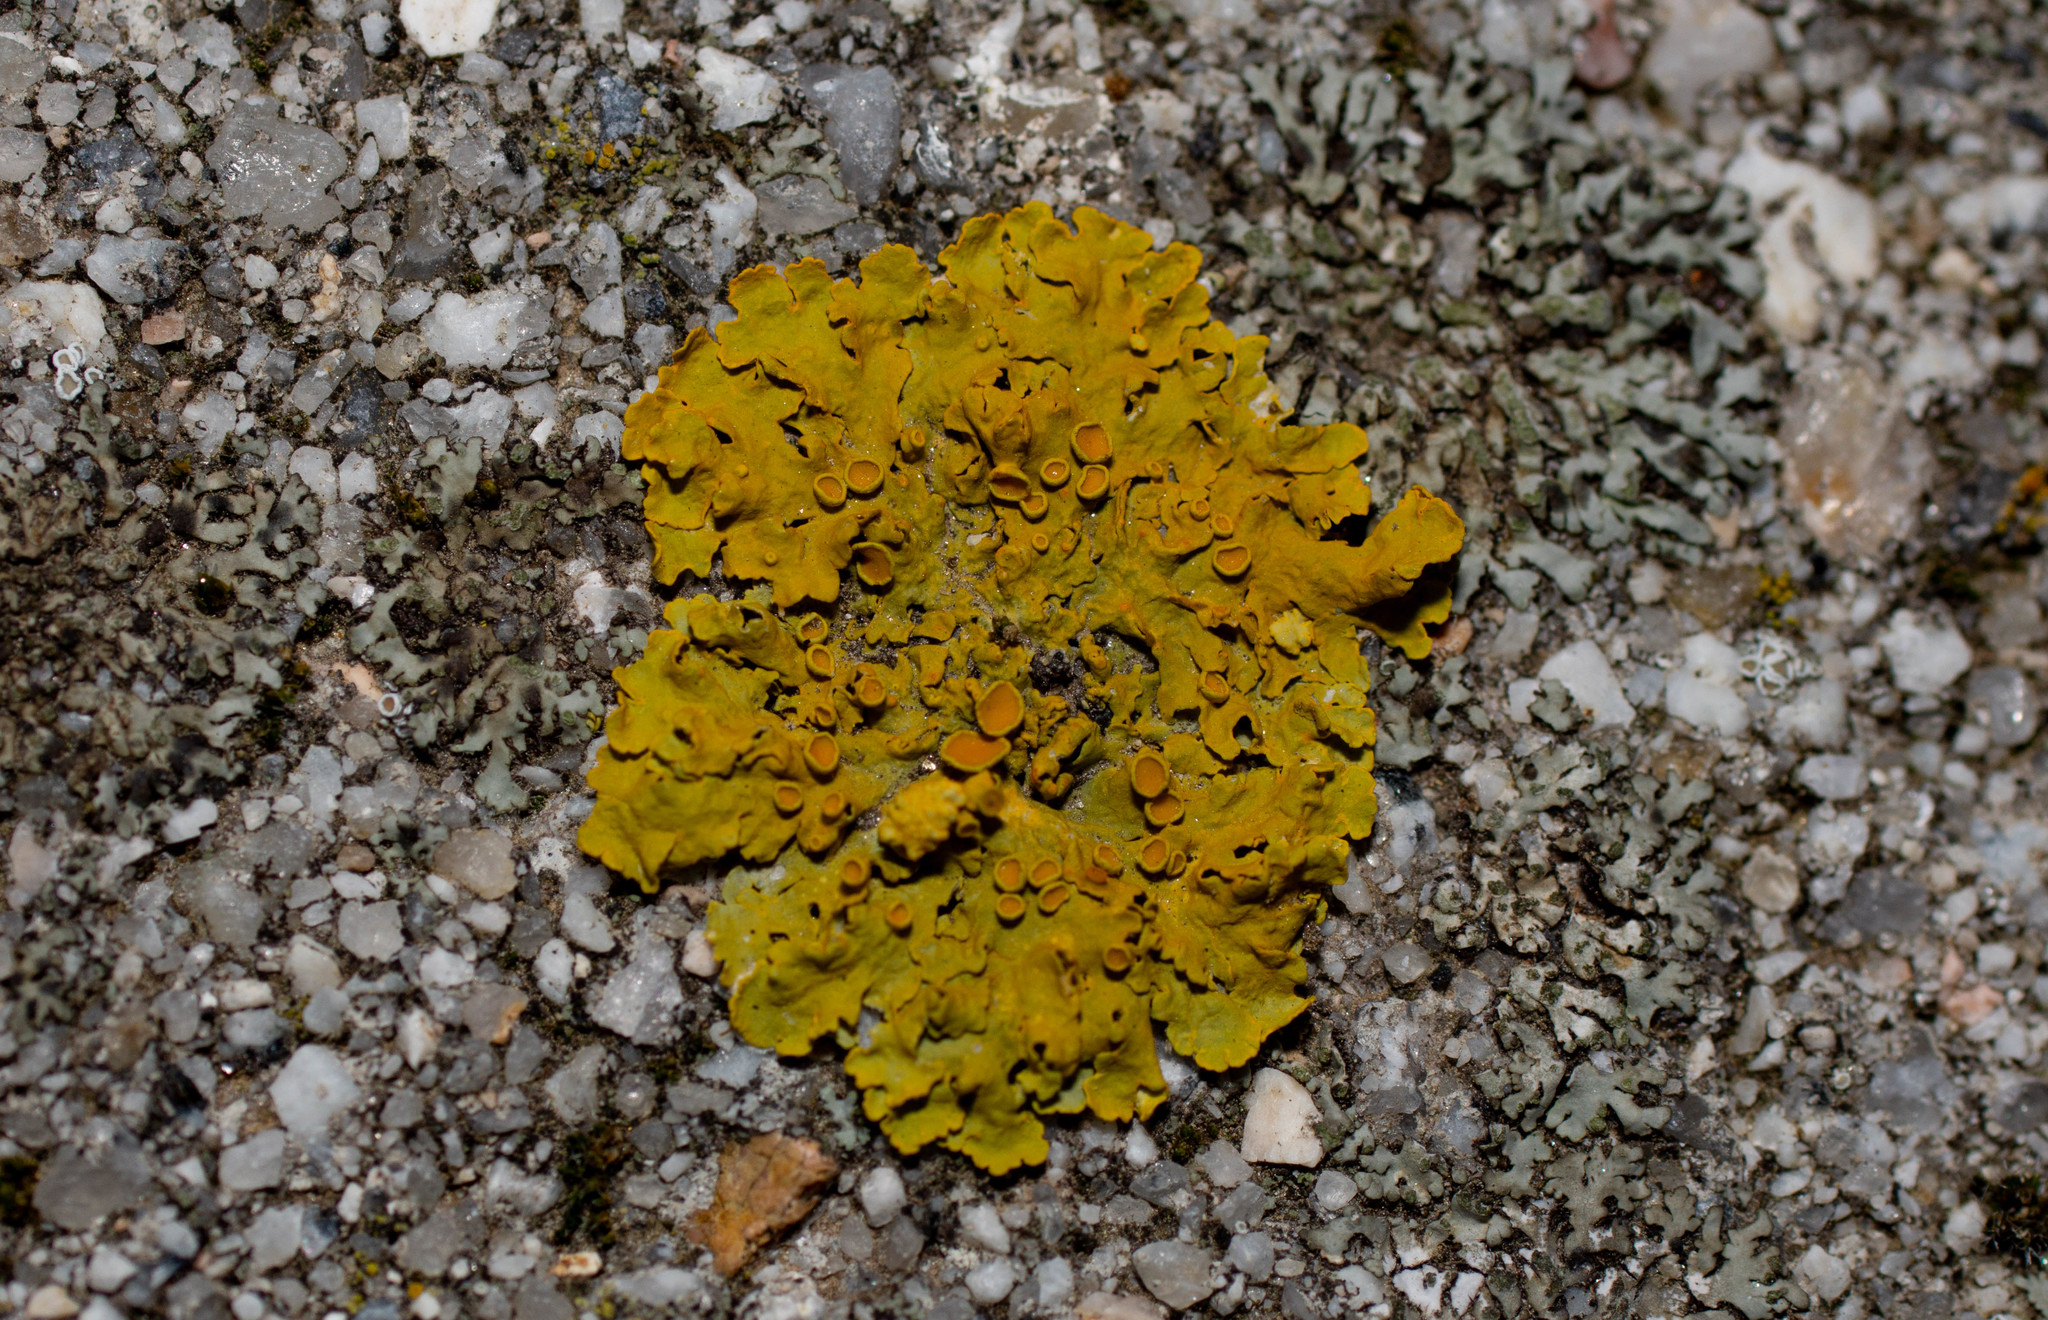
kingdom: Fungi
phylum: Ascomycota
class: Lecanoromycetes
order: Teloschistales
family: Teloschistaceae
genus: Xanthoria
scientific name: Xanthoria parietina
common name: Common orange lichen
